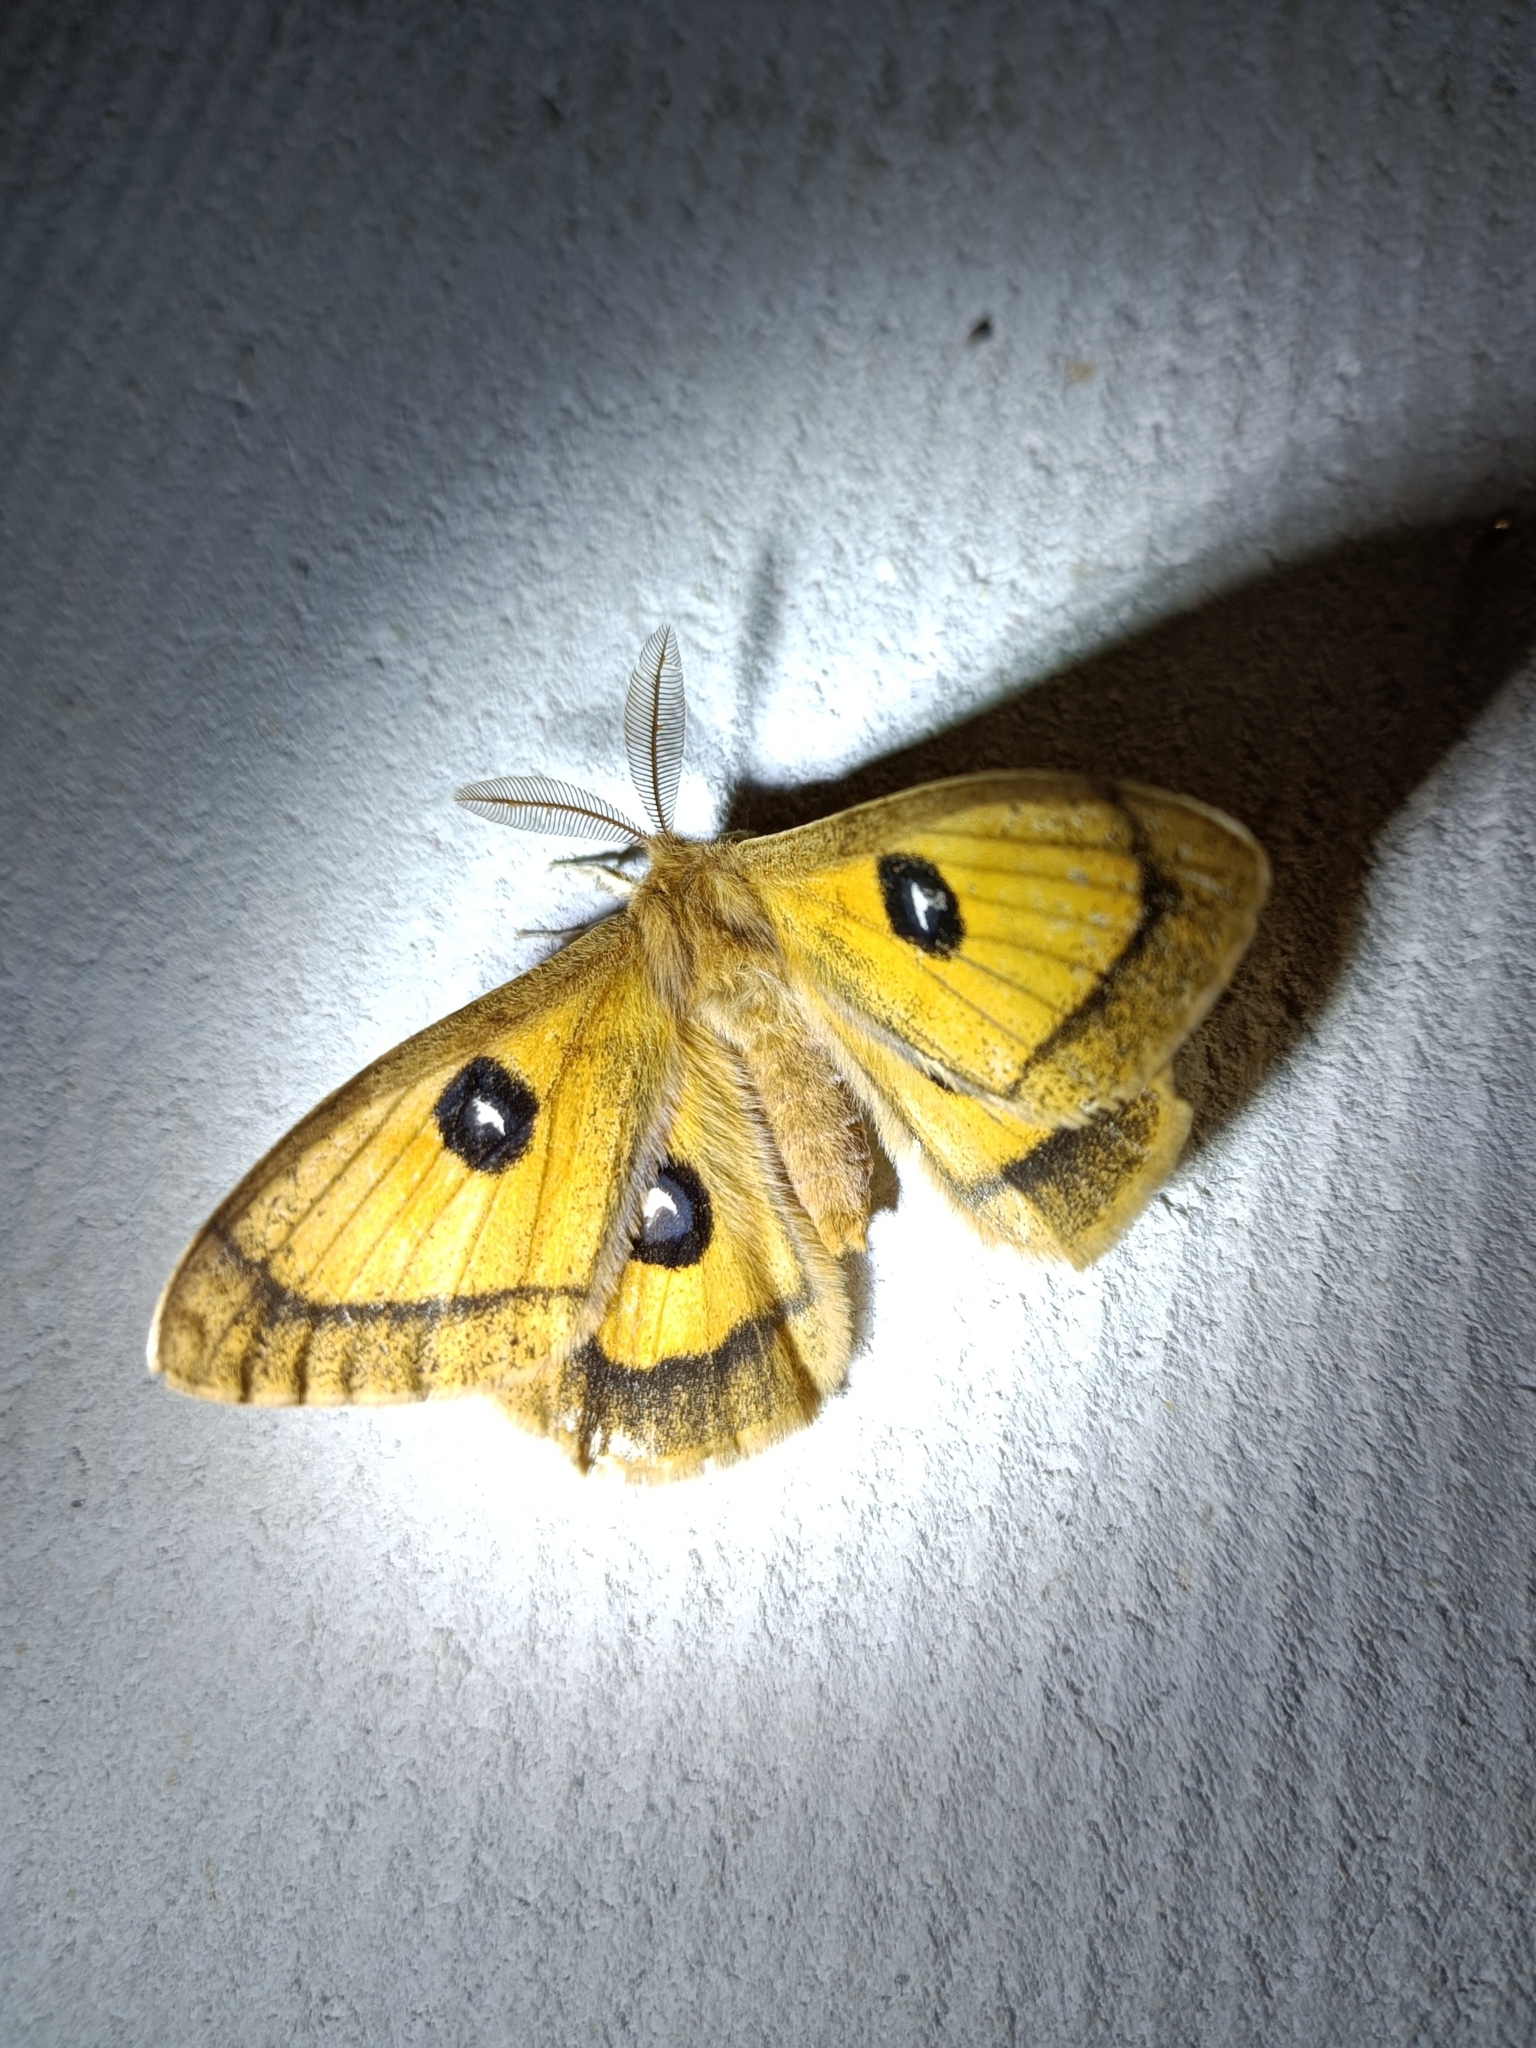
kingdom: Animalia
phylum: Arthropoda
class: Insecta
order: Lepidoptera
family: Saturniidae
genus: Aglia
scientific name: Aglia tau
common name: Tau emperor
